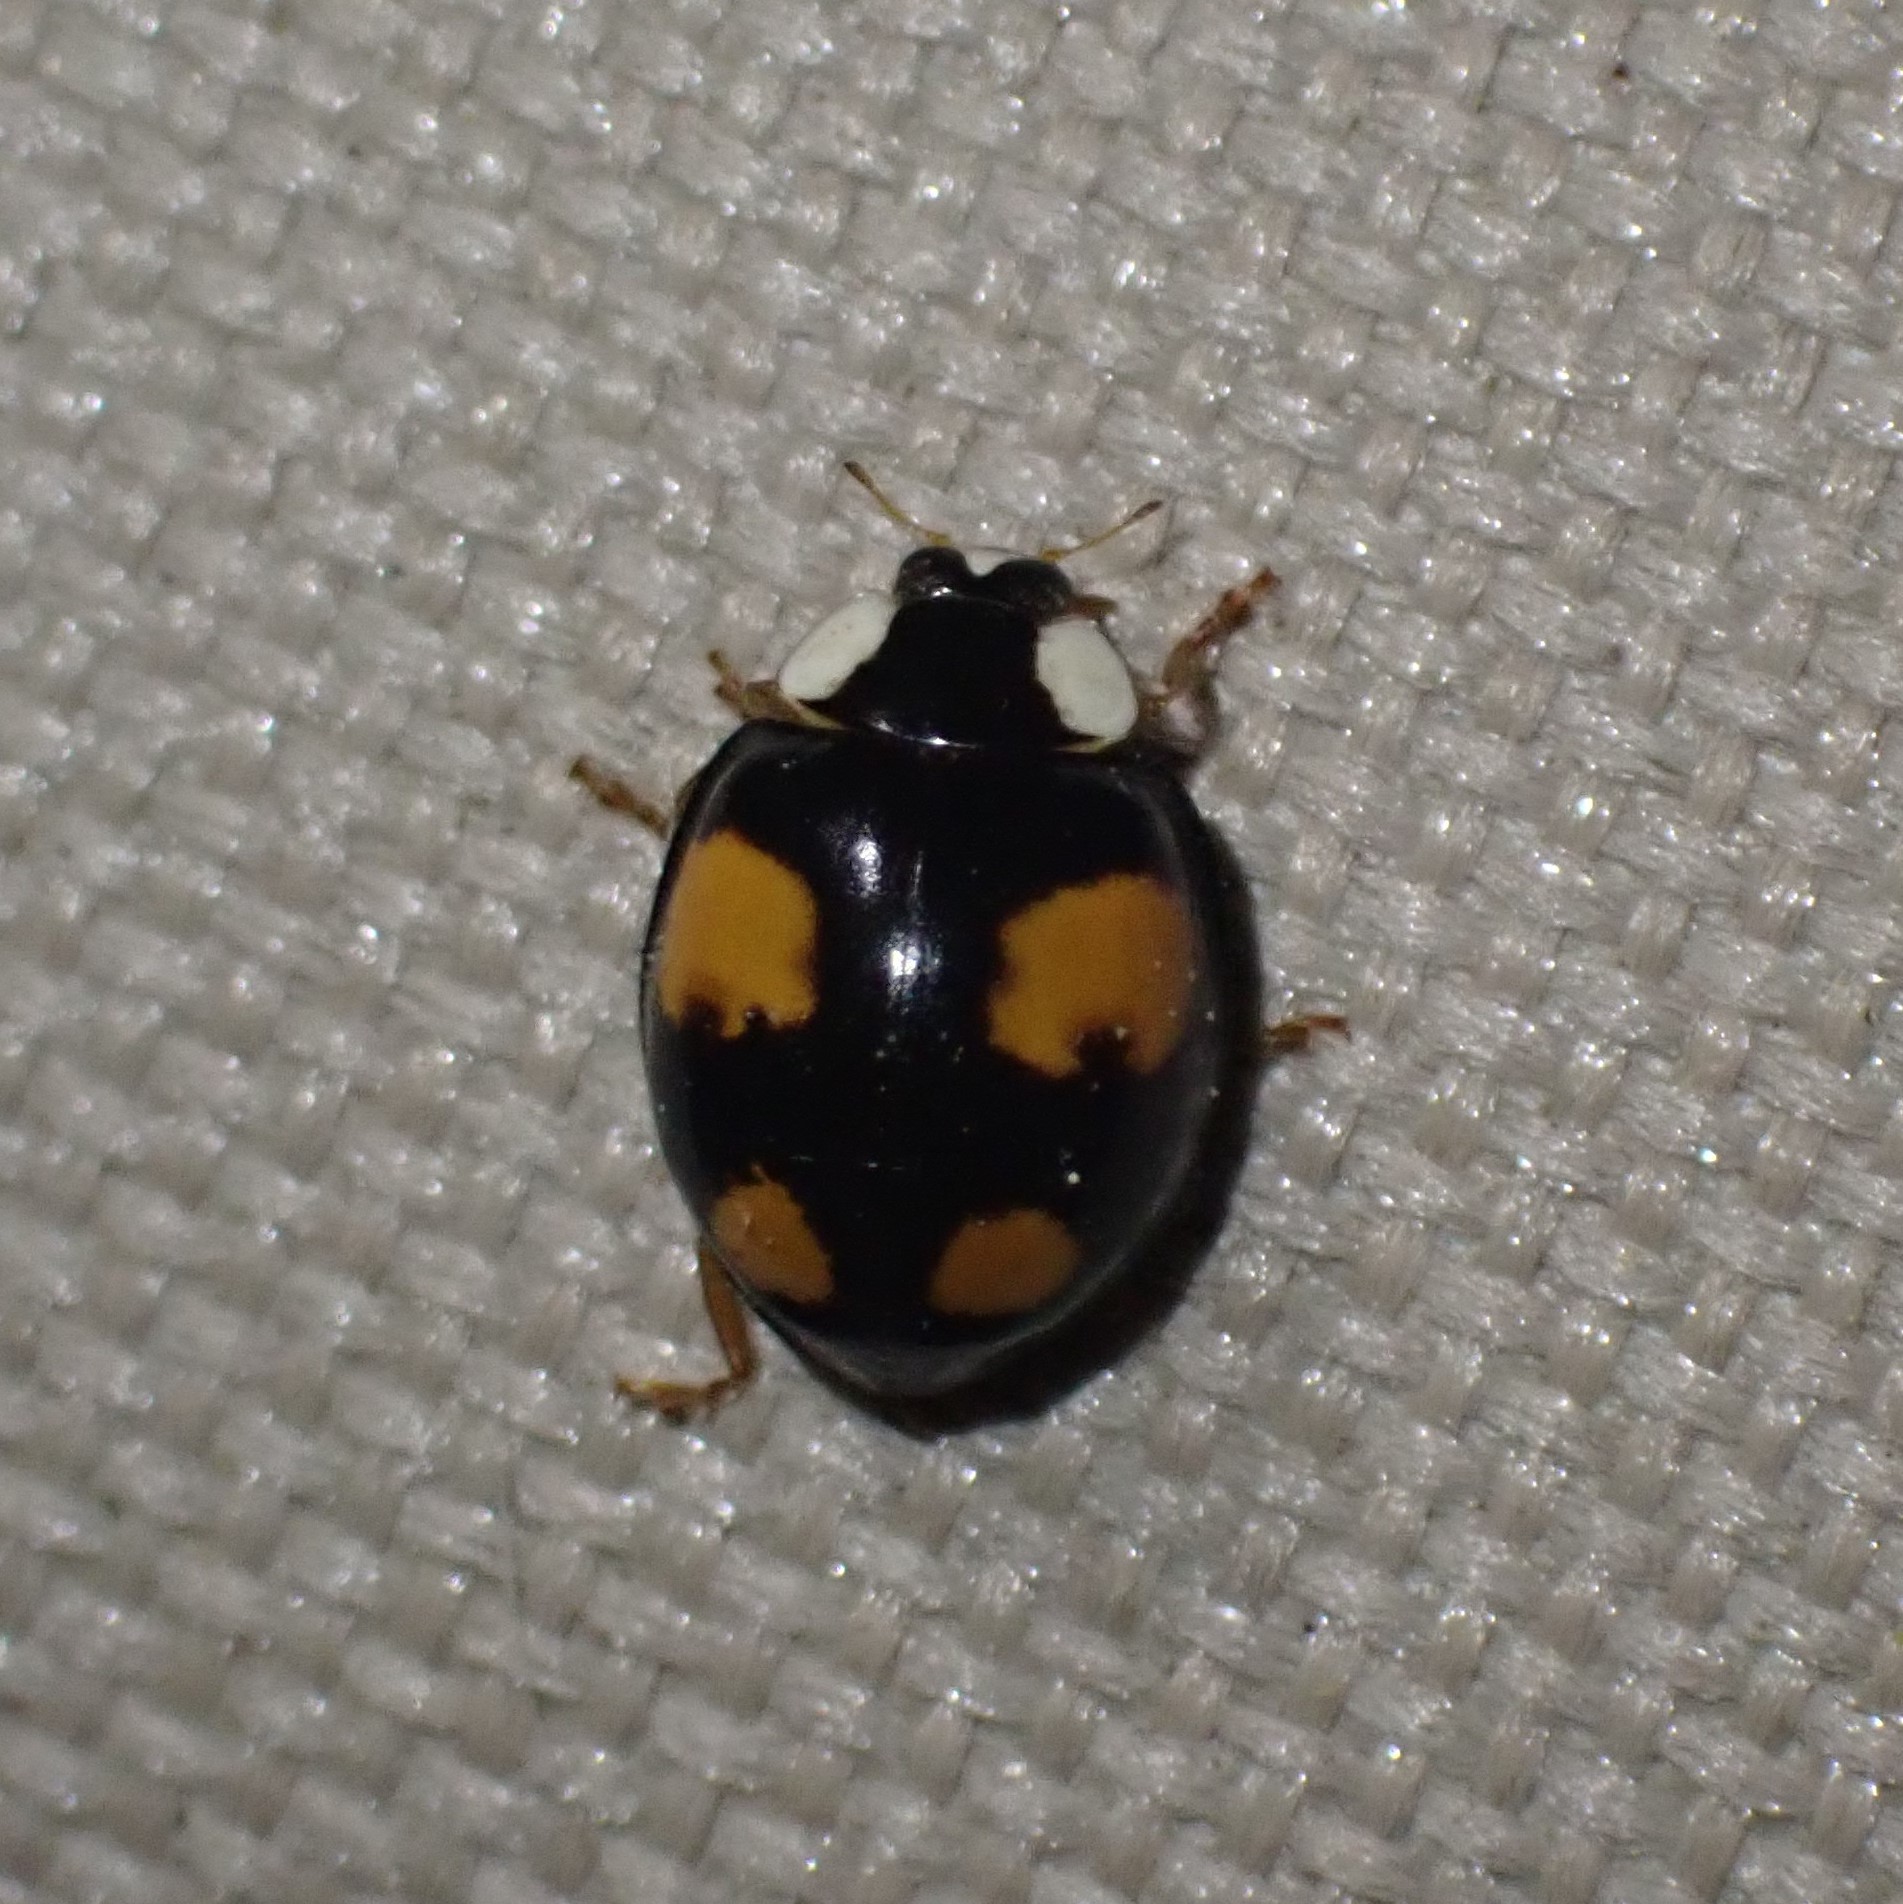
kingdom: Animalia
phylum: Arthropoda
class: Insecta
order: Coleoptera
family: Coccinellidae
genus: Harmonia
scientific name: Harmonia axyridis
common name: Harlequin ladybird
